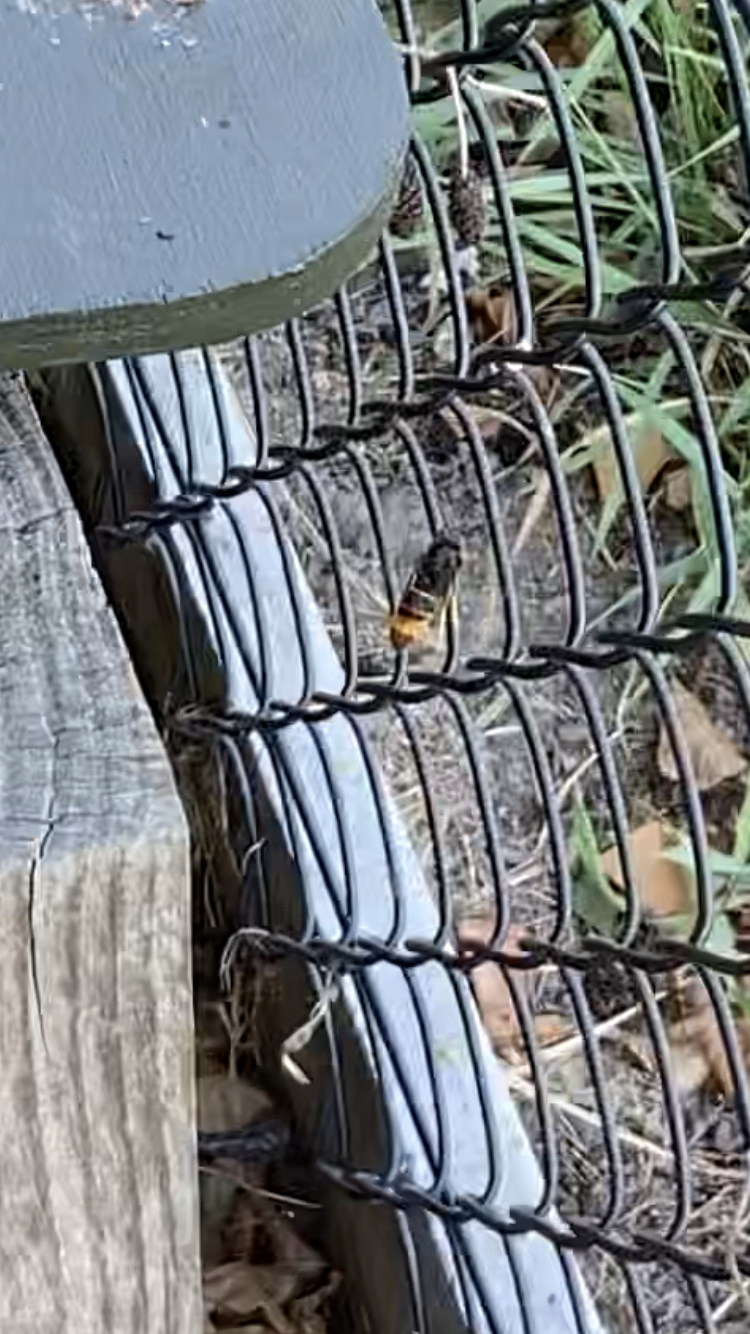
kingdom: Animalia
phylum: Arthropoda
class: Insecta
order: Hymenoptera
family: Vespidae
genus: Vespa
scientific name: Vespa velutina
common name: Asian hornet
